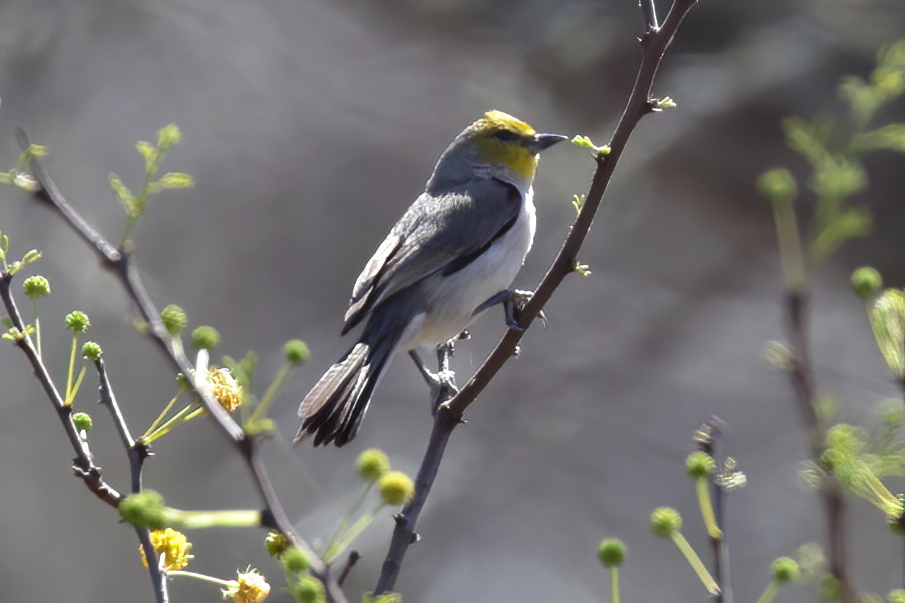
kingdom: Animalia
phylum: Chordata
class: Aves
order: Passeriformes
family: Remizidae
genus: Auriparus
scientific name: Auriparus flaviceps
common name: Verdin
